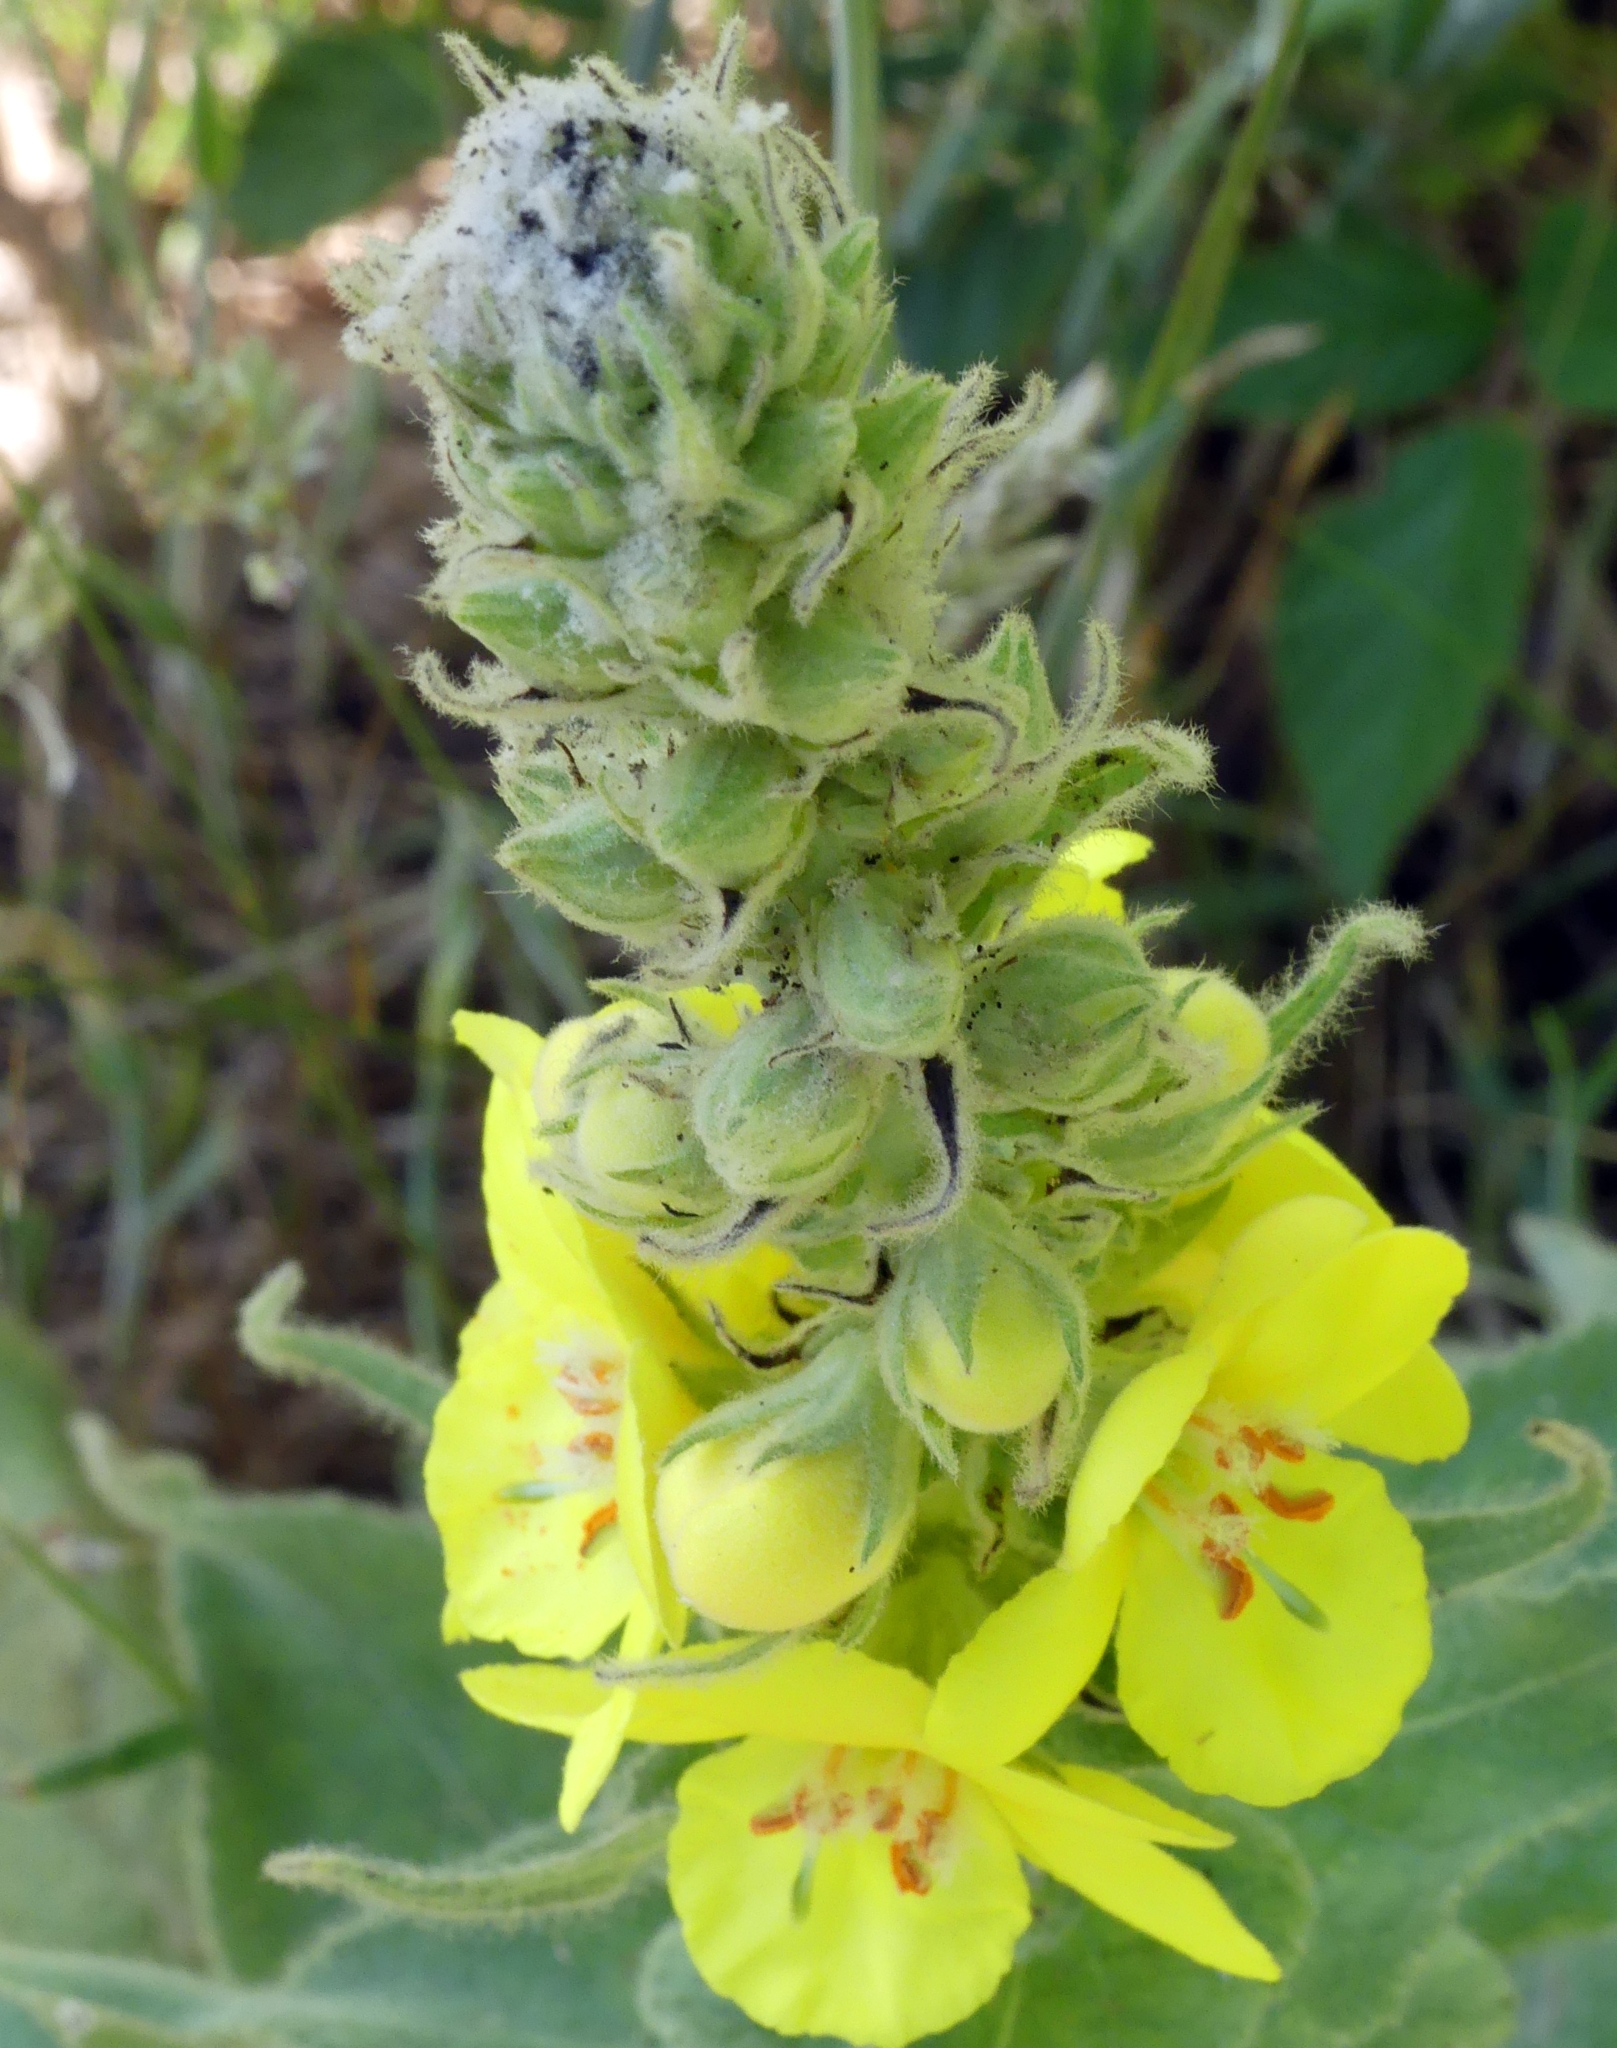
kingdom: Plantae
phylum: Tracheophyta
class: Magnoliopsida
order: Lamiales
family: Scrophulariaceae
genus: Verbascum
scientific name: Verbascum thapsus
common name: Common mullein
